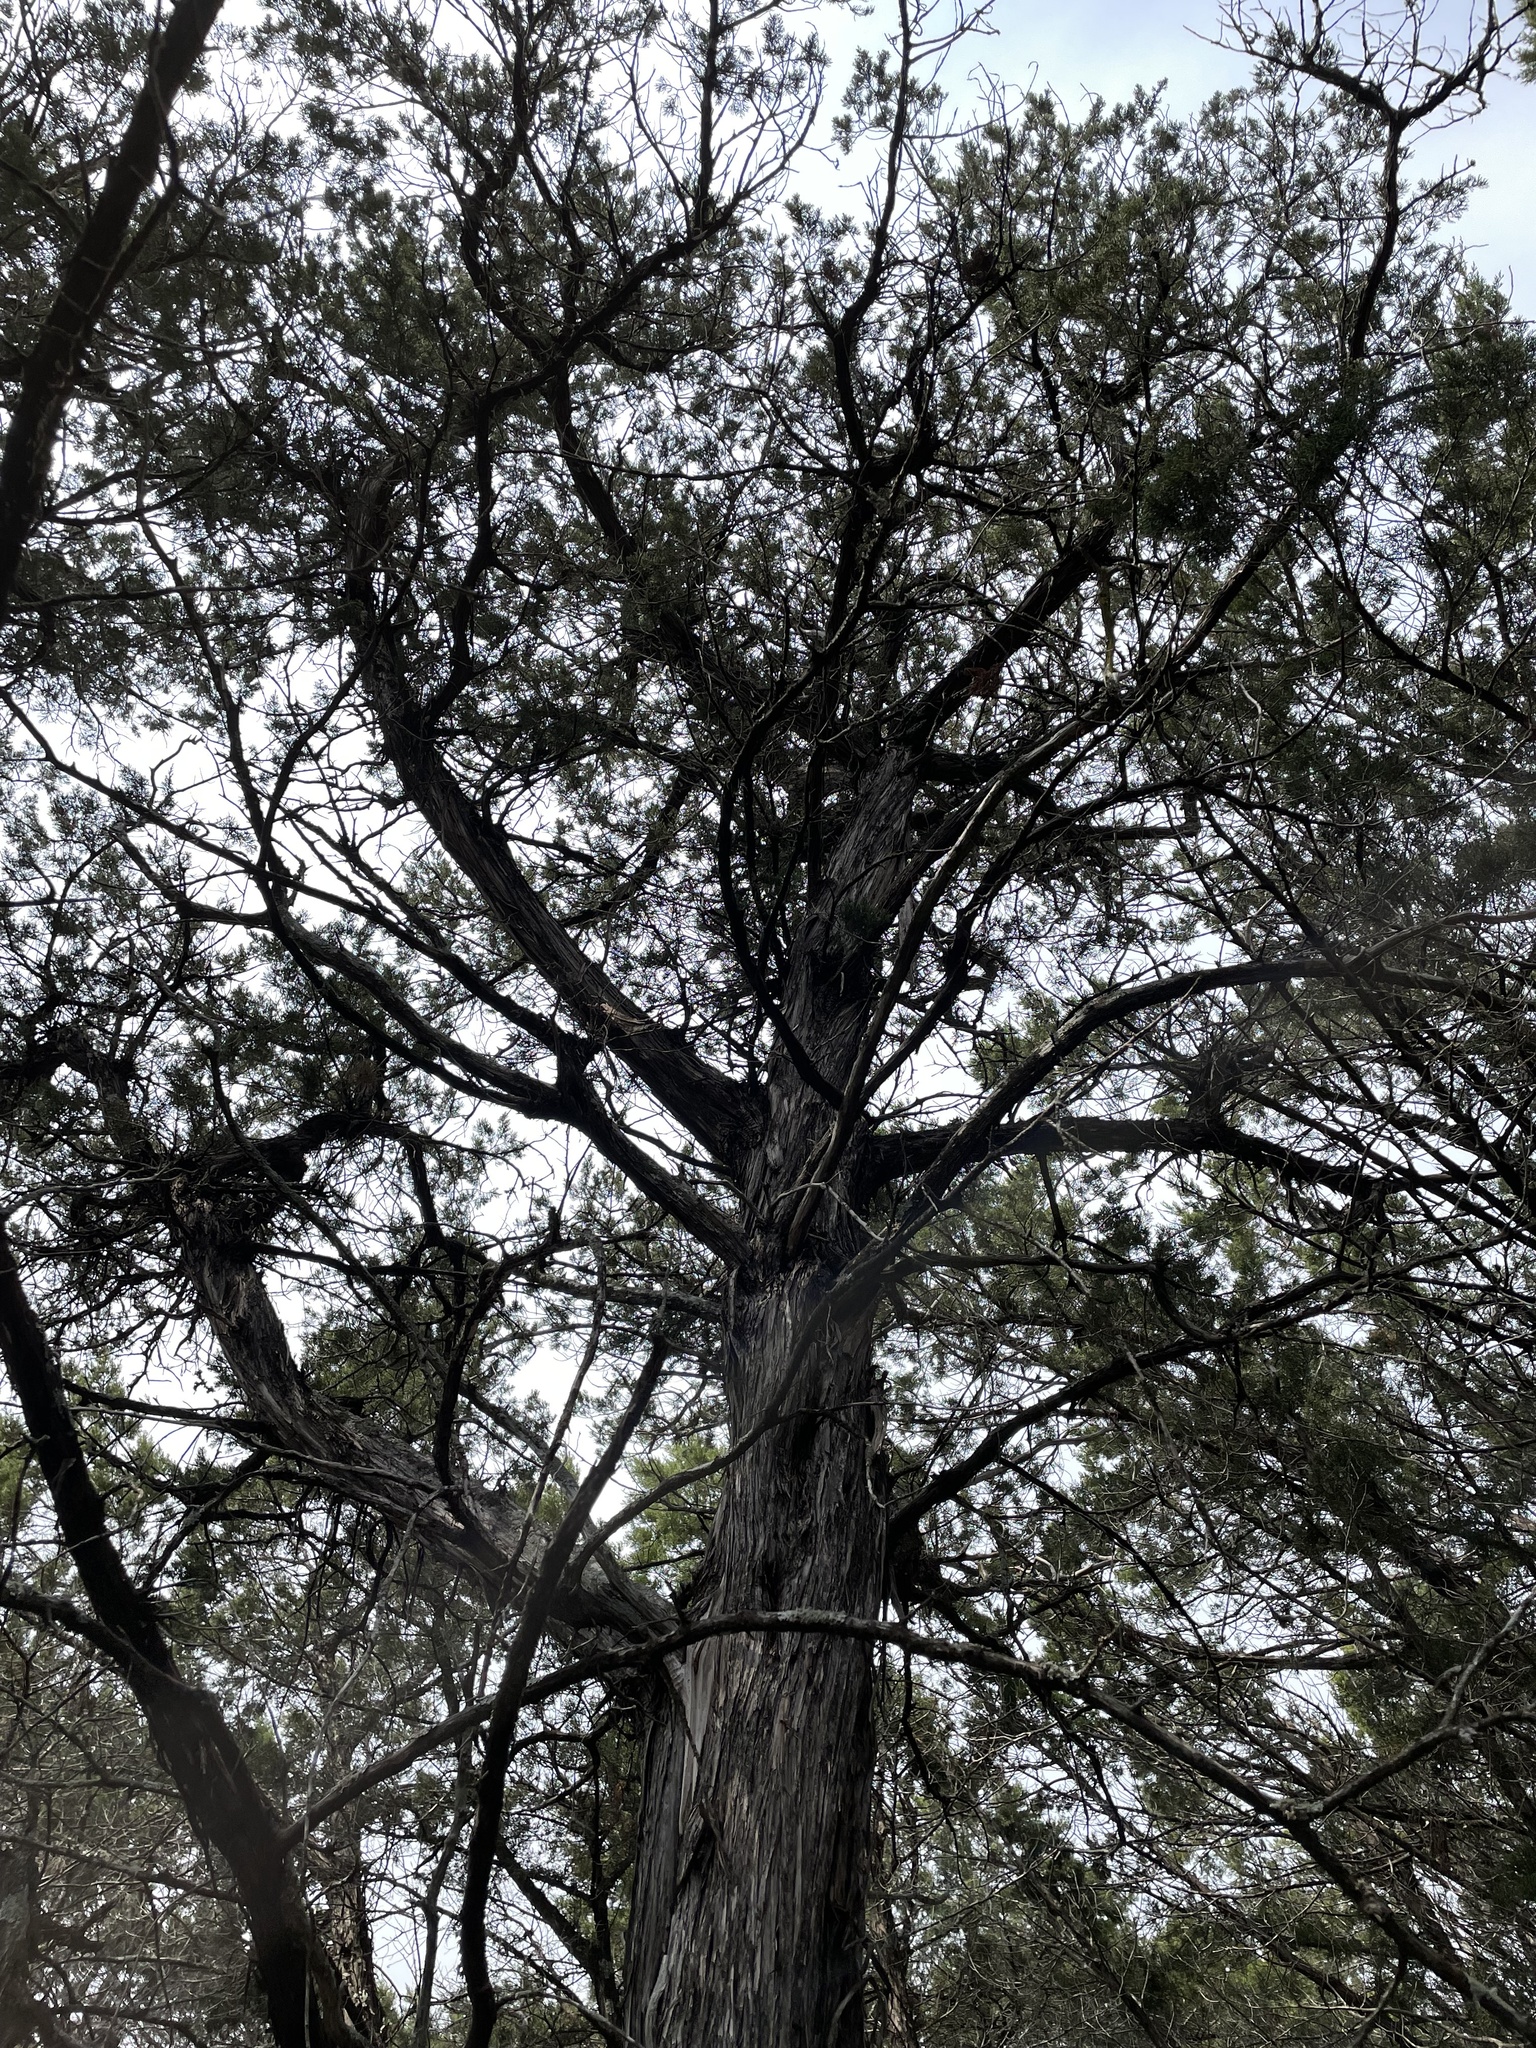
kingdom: Plantae
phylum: Tracheophyta
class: Pinopsida
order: Pinales
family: Cupressaceae
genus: Juniperus
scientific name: Juniperus ashei
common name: Mexican juniper
